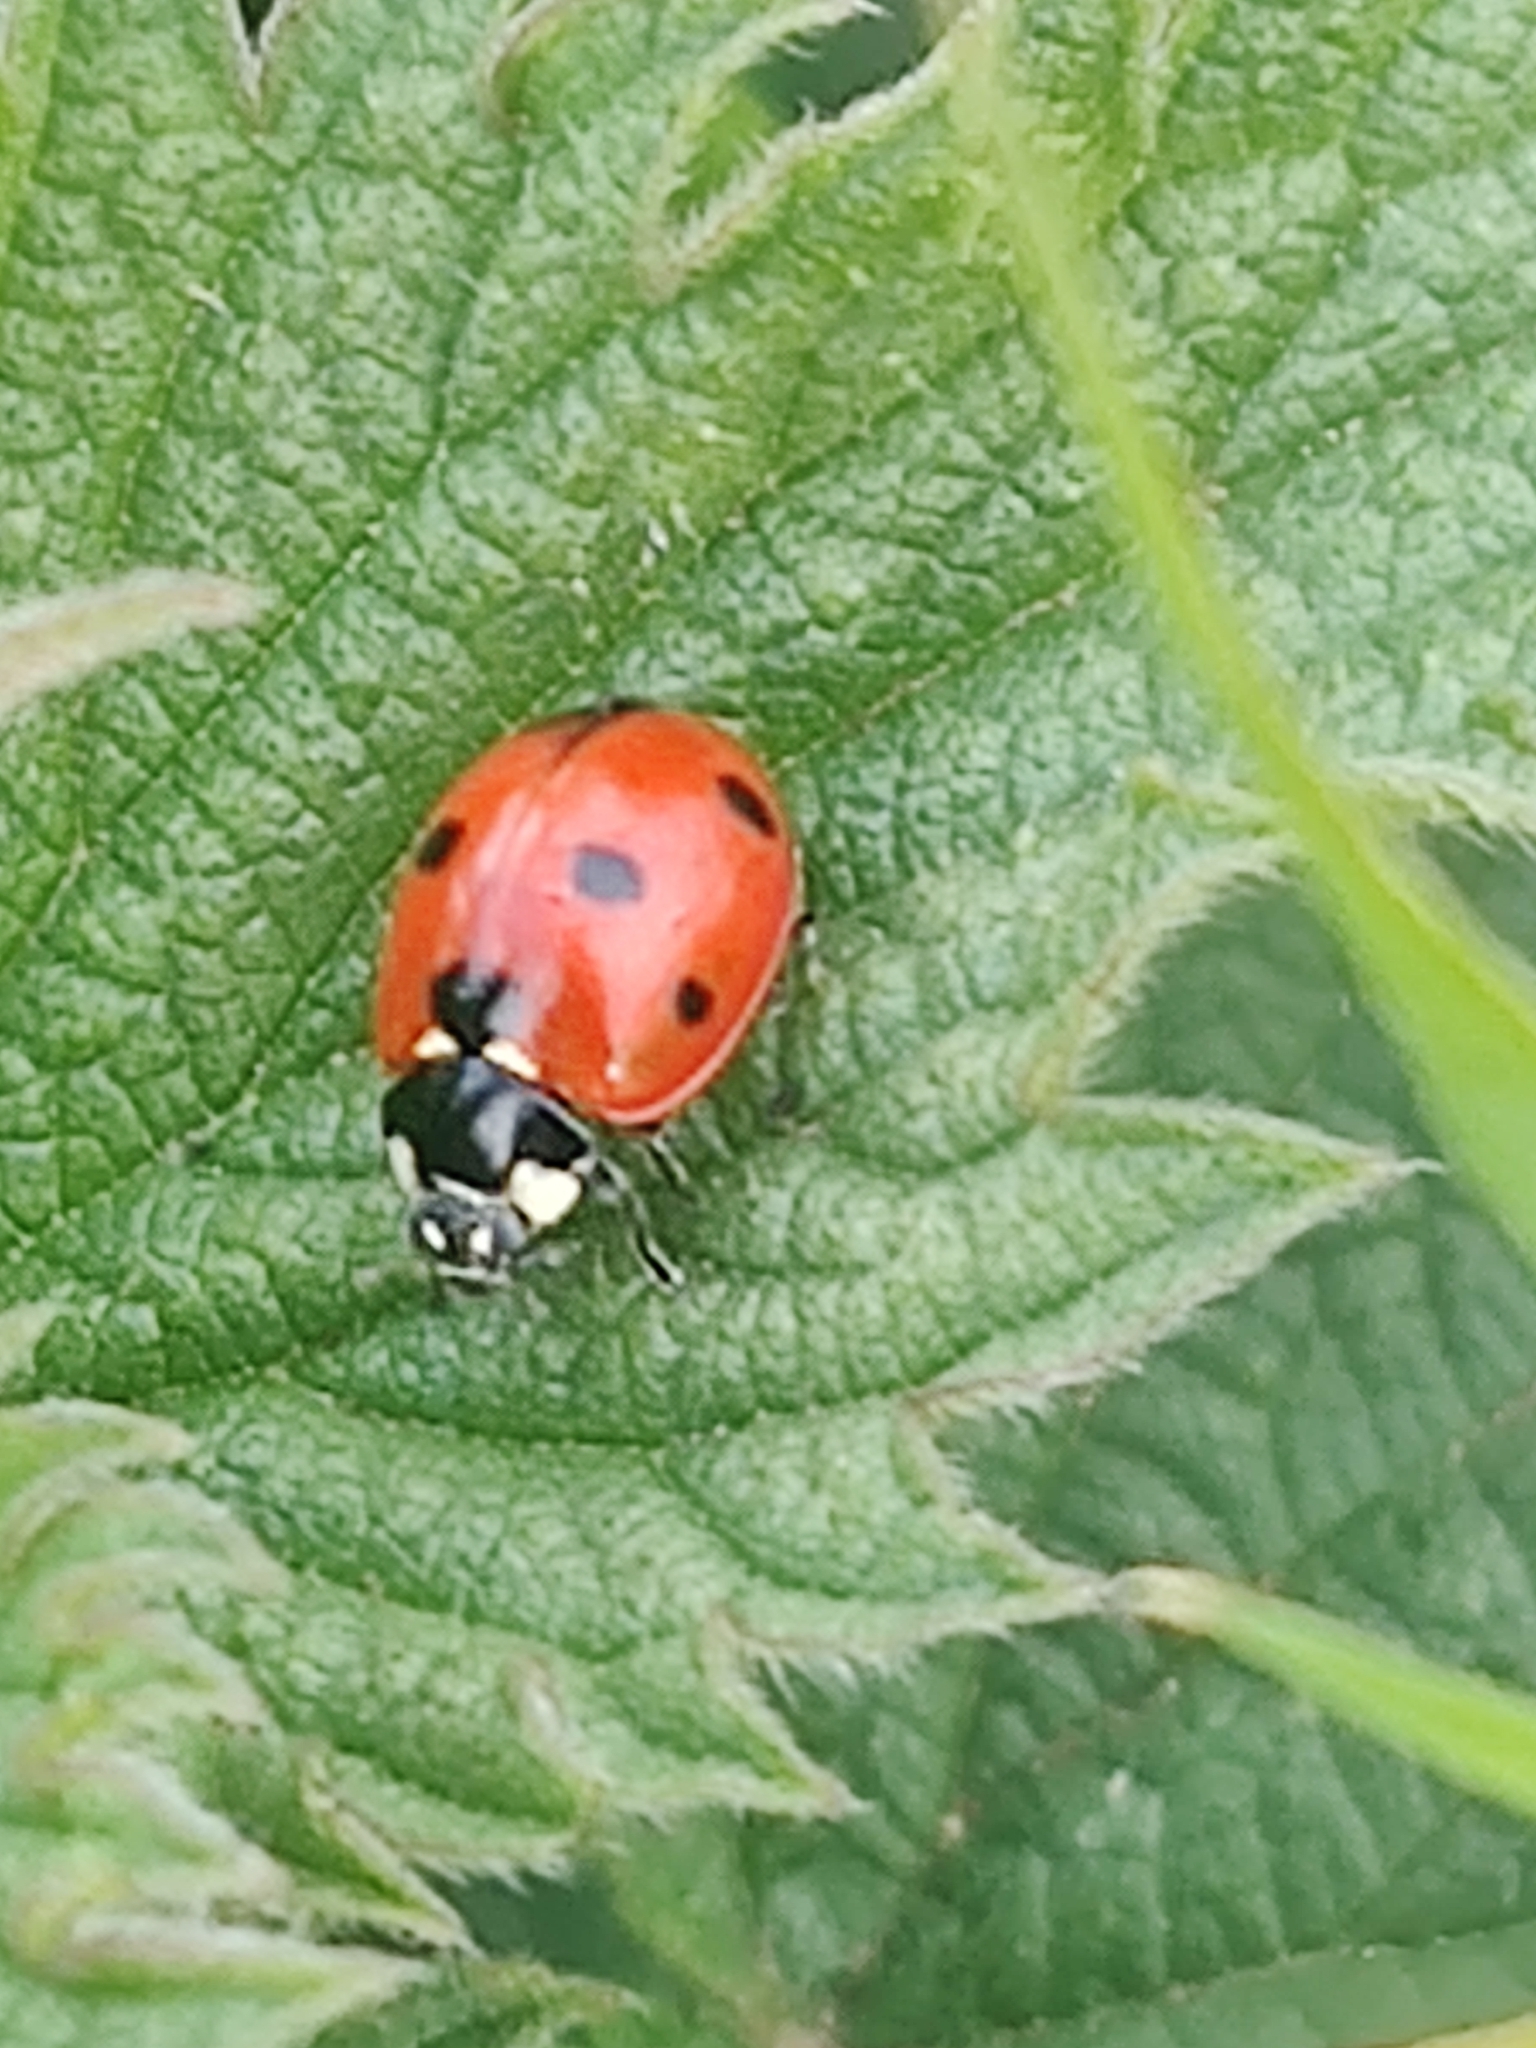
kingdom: Animalia
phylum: Arthropoda
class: Insecta
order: Coleoptera
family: Coccinellidae
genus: Coccinella
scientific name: Coccinella septempunctata
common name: Sevenspotted lady beetle
